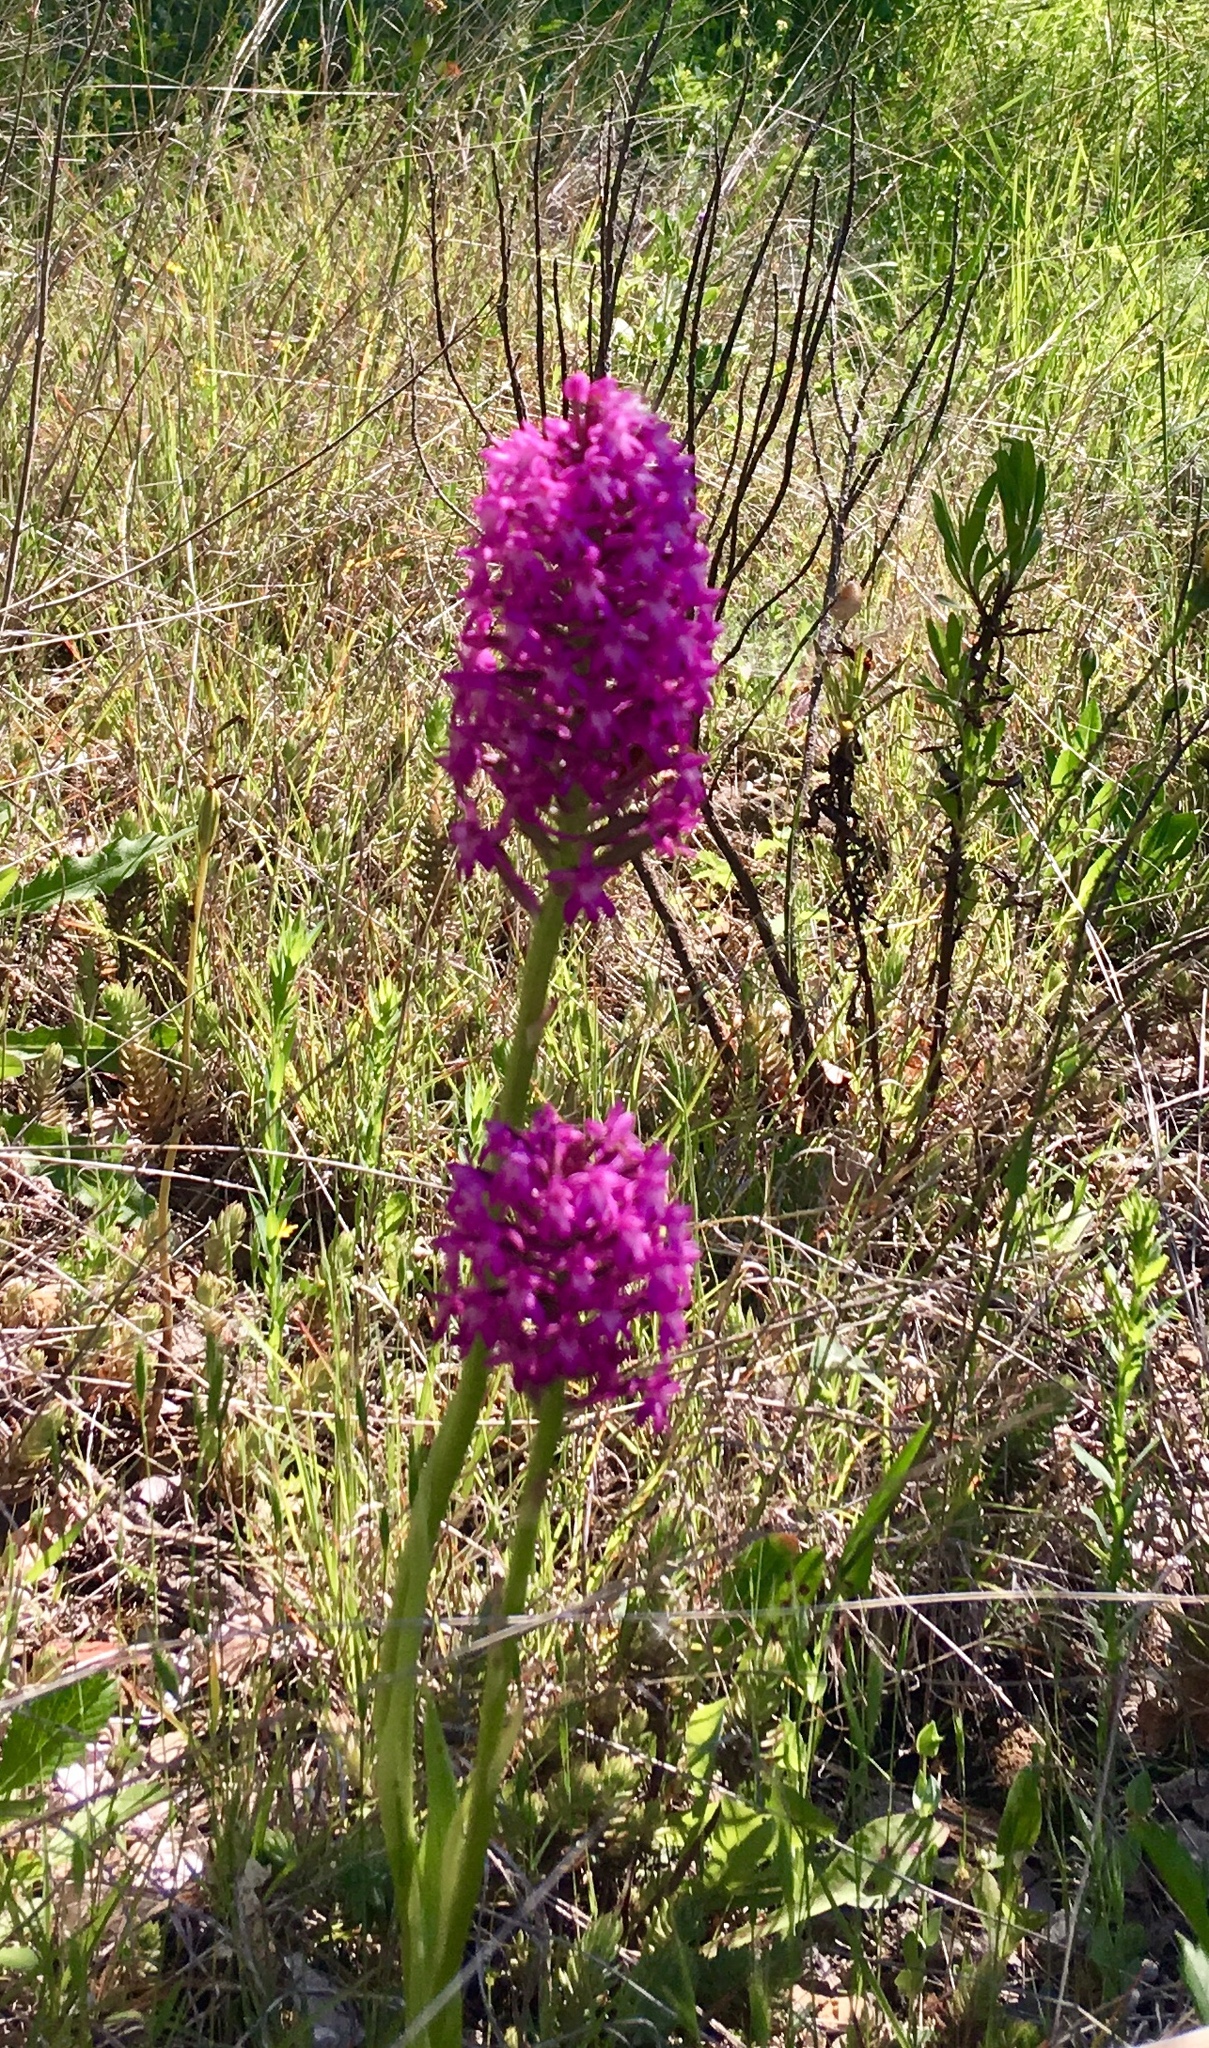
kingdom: Plantae
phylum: Tracheophyta
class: Liliopsida
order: Asparagales
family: Orchidaceae
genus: Anacamptis
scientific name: Anacamptis pyramidalis
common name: Pyramidal orchid
